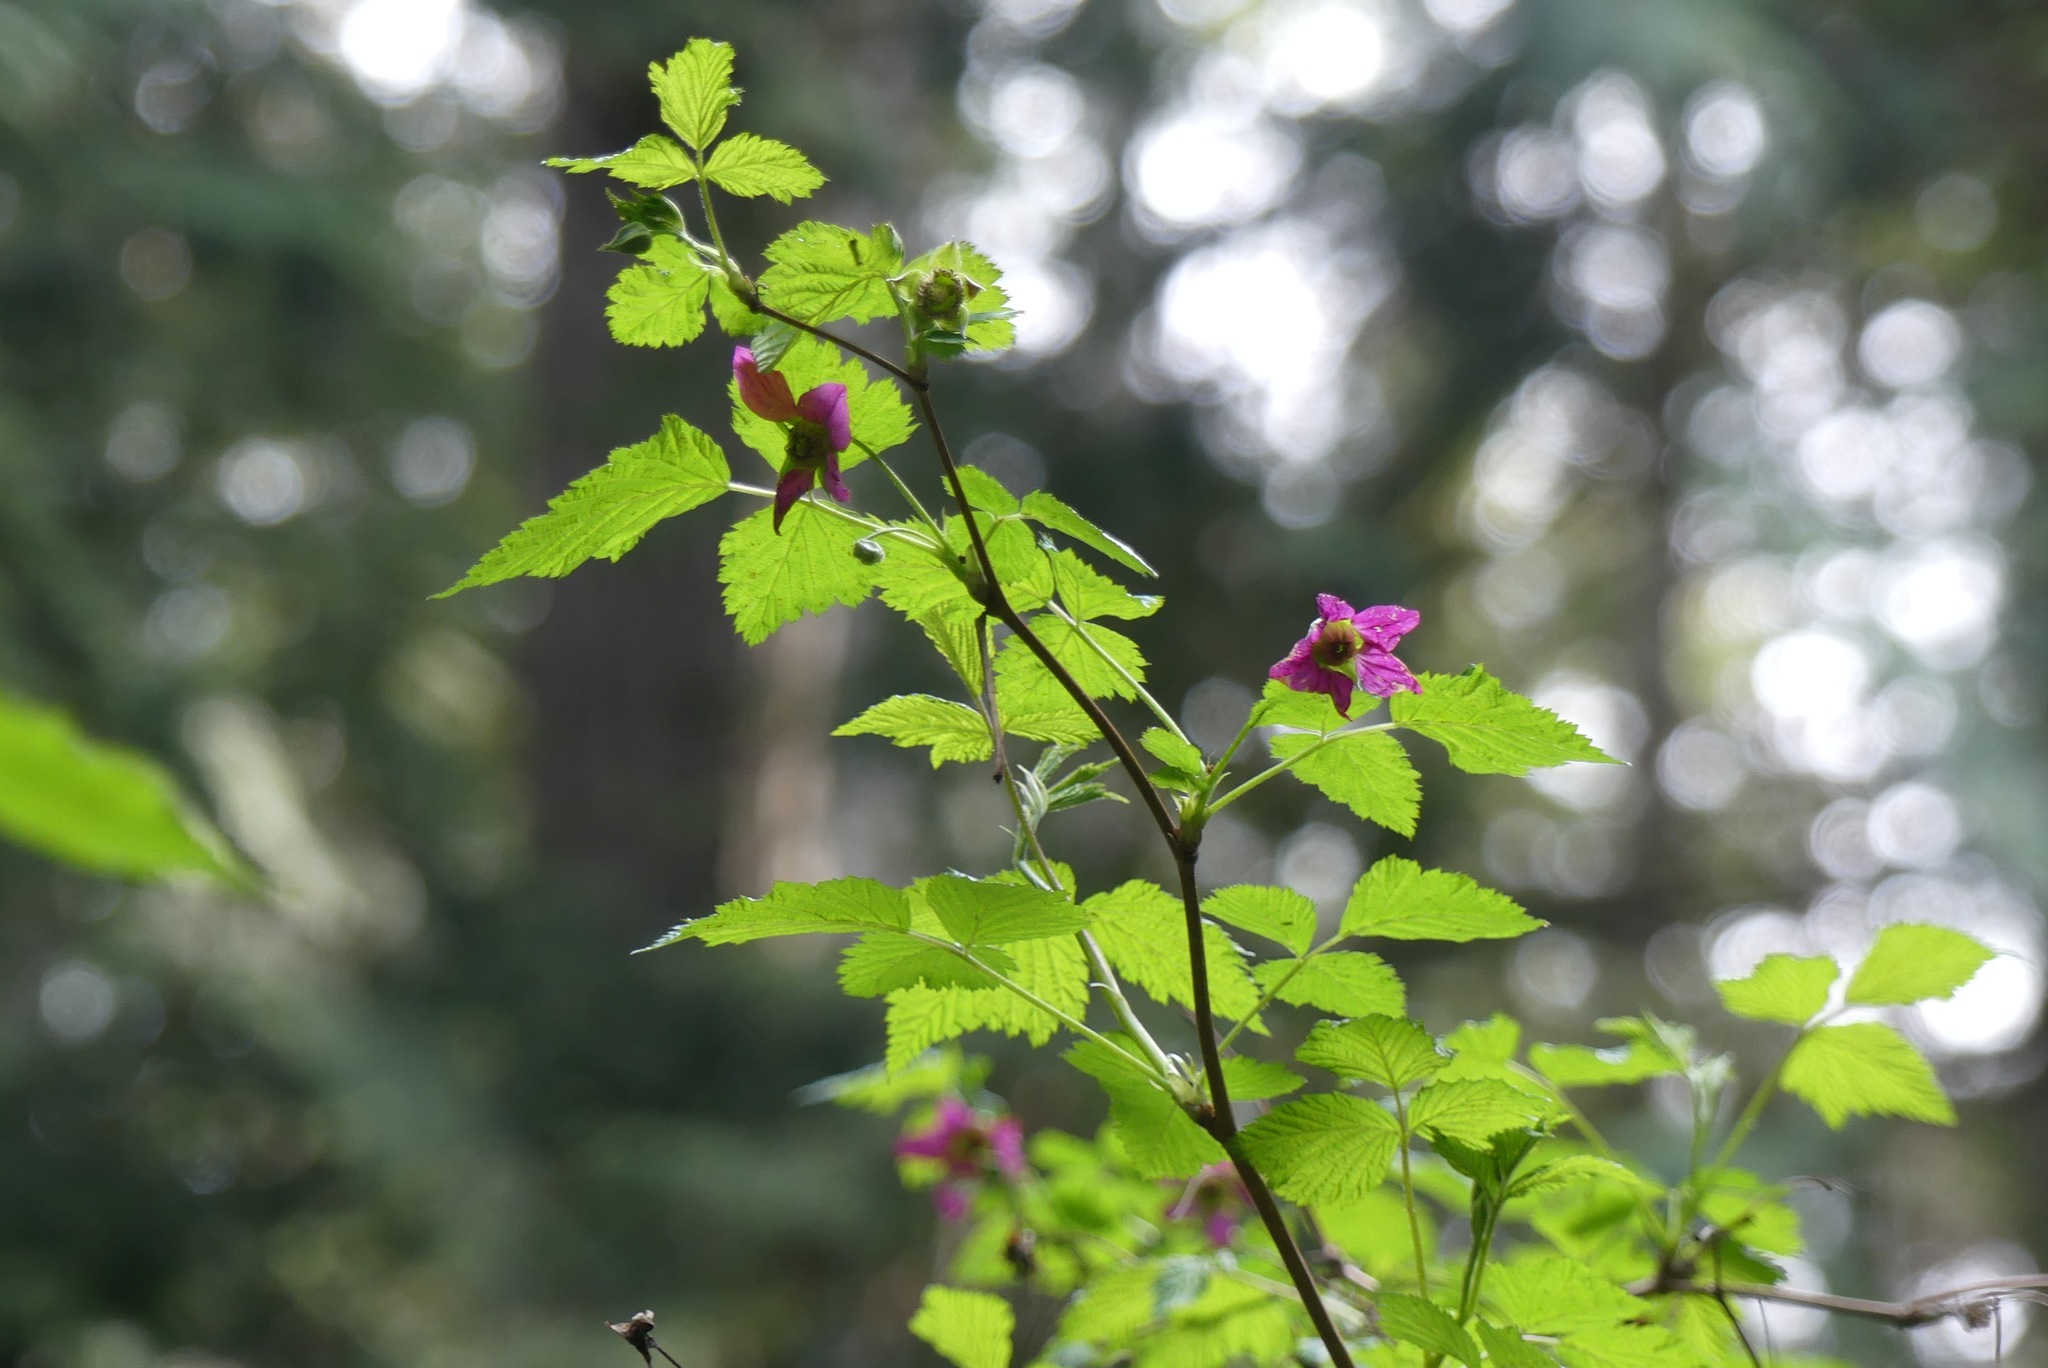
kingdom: Plantae
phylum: Tracheophyta
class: Magnoliopsida
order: Rosales
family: Rosaceae
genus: Rubus
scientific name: Rubus spectabilis
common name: Salmonberry
